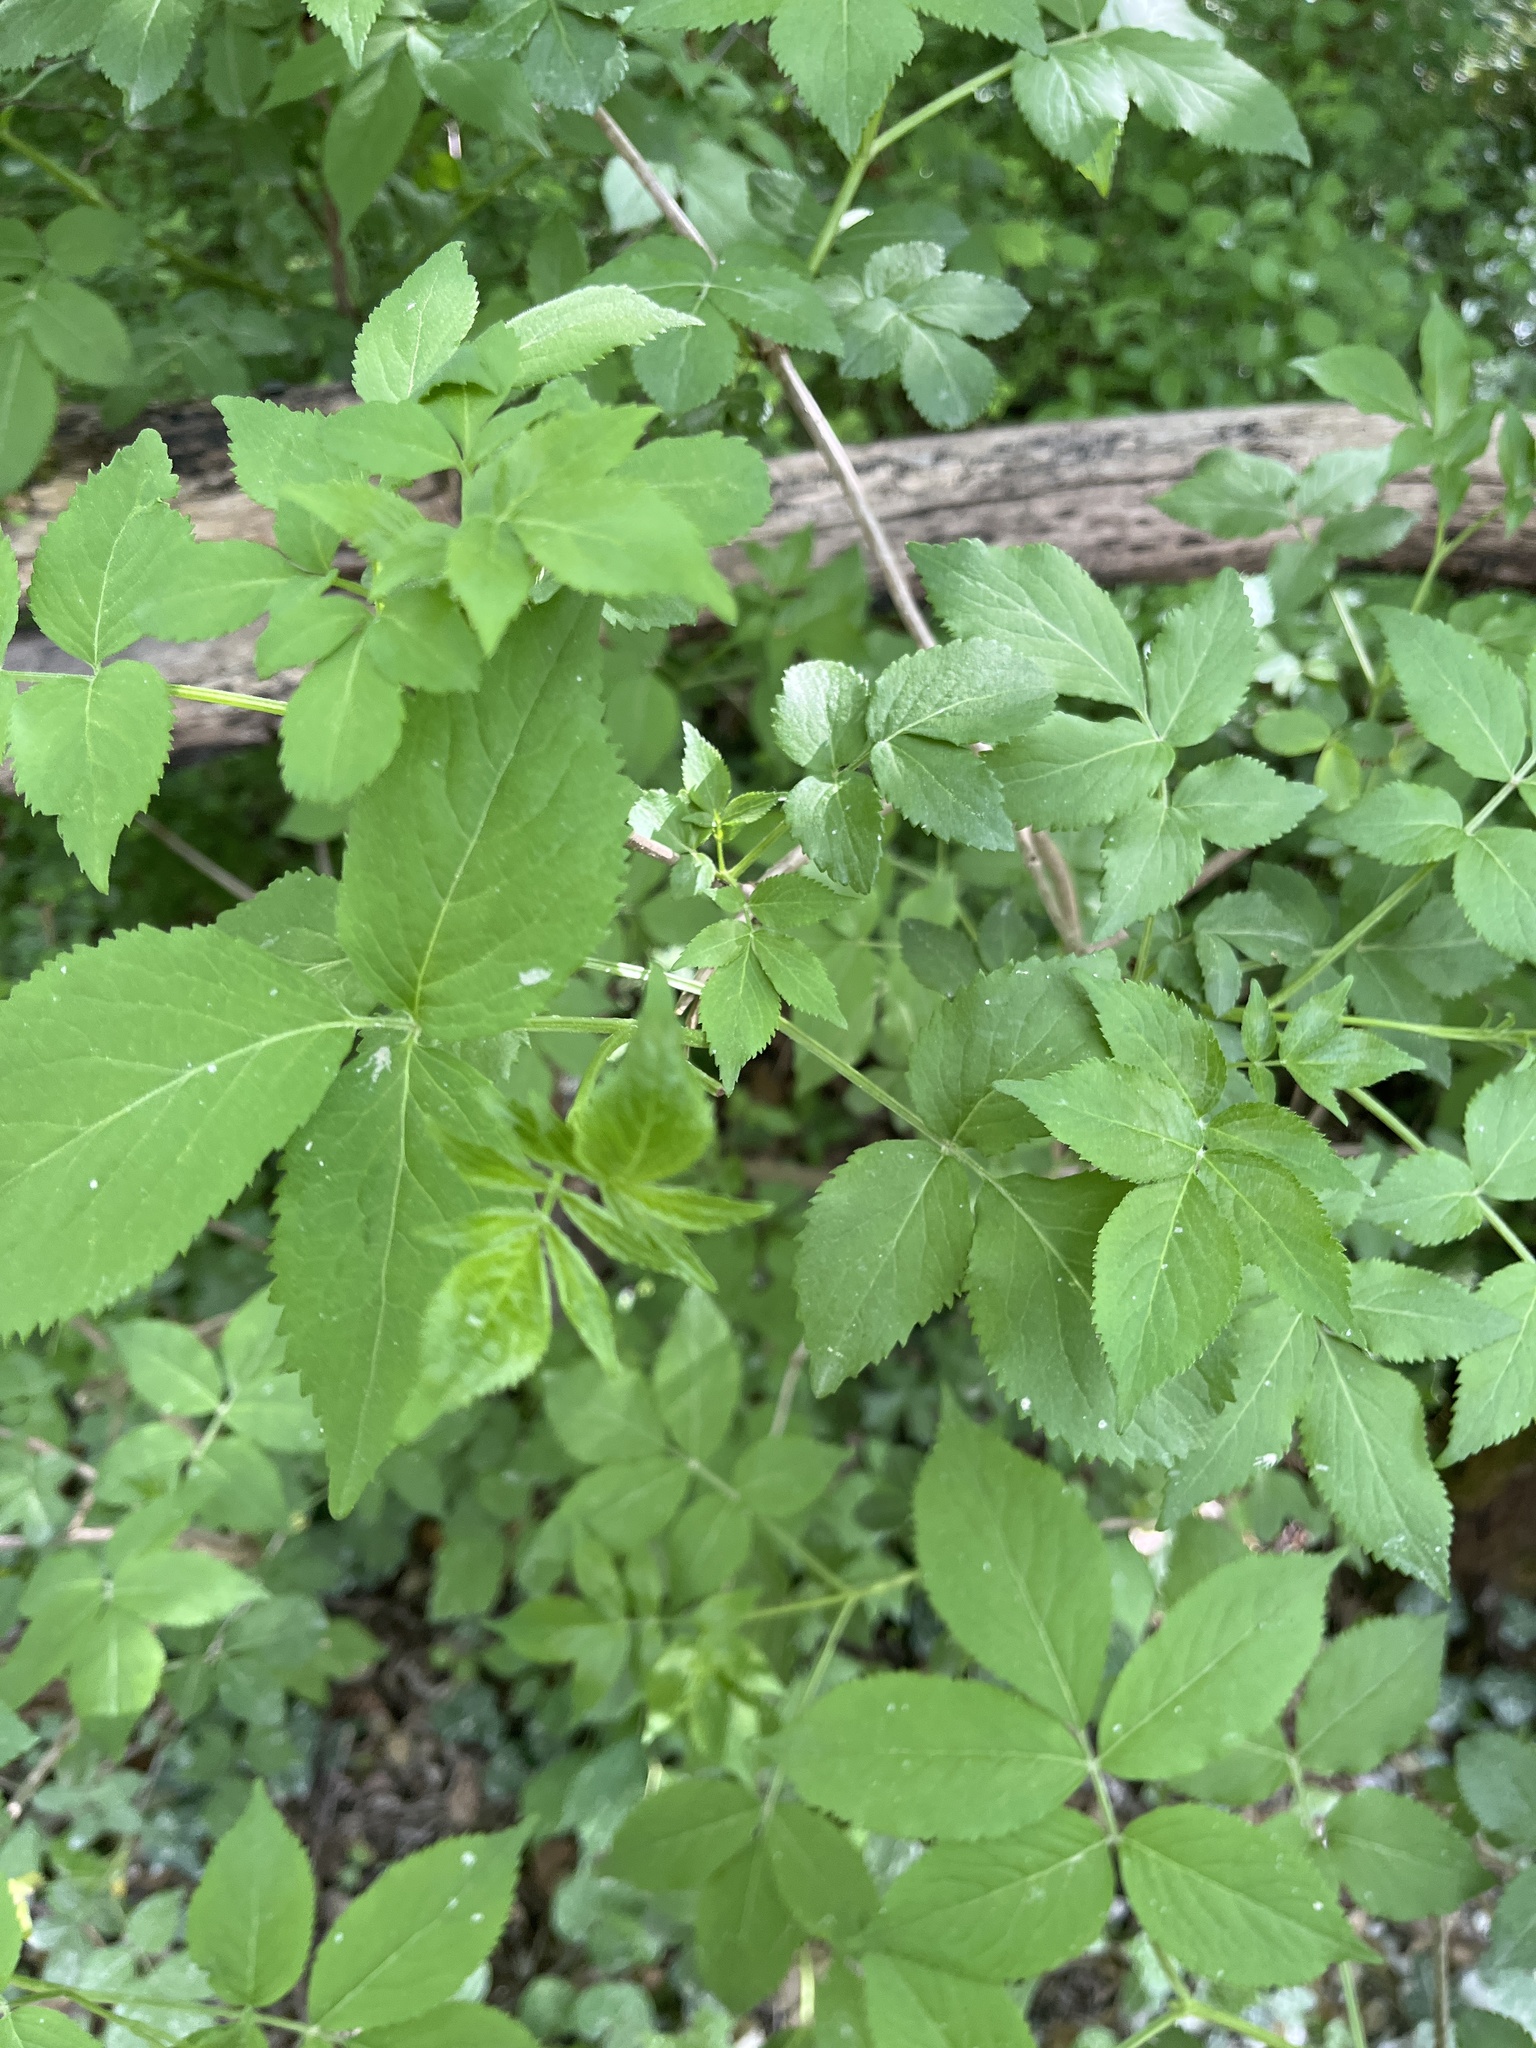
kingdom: Plantae
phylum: Tracheophyta
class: Magnoliopsida
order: Dipsacales
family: Viburnaceae
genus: Sambucus
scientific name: Sambucus nigra
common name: Elder
